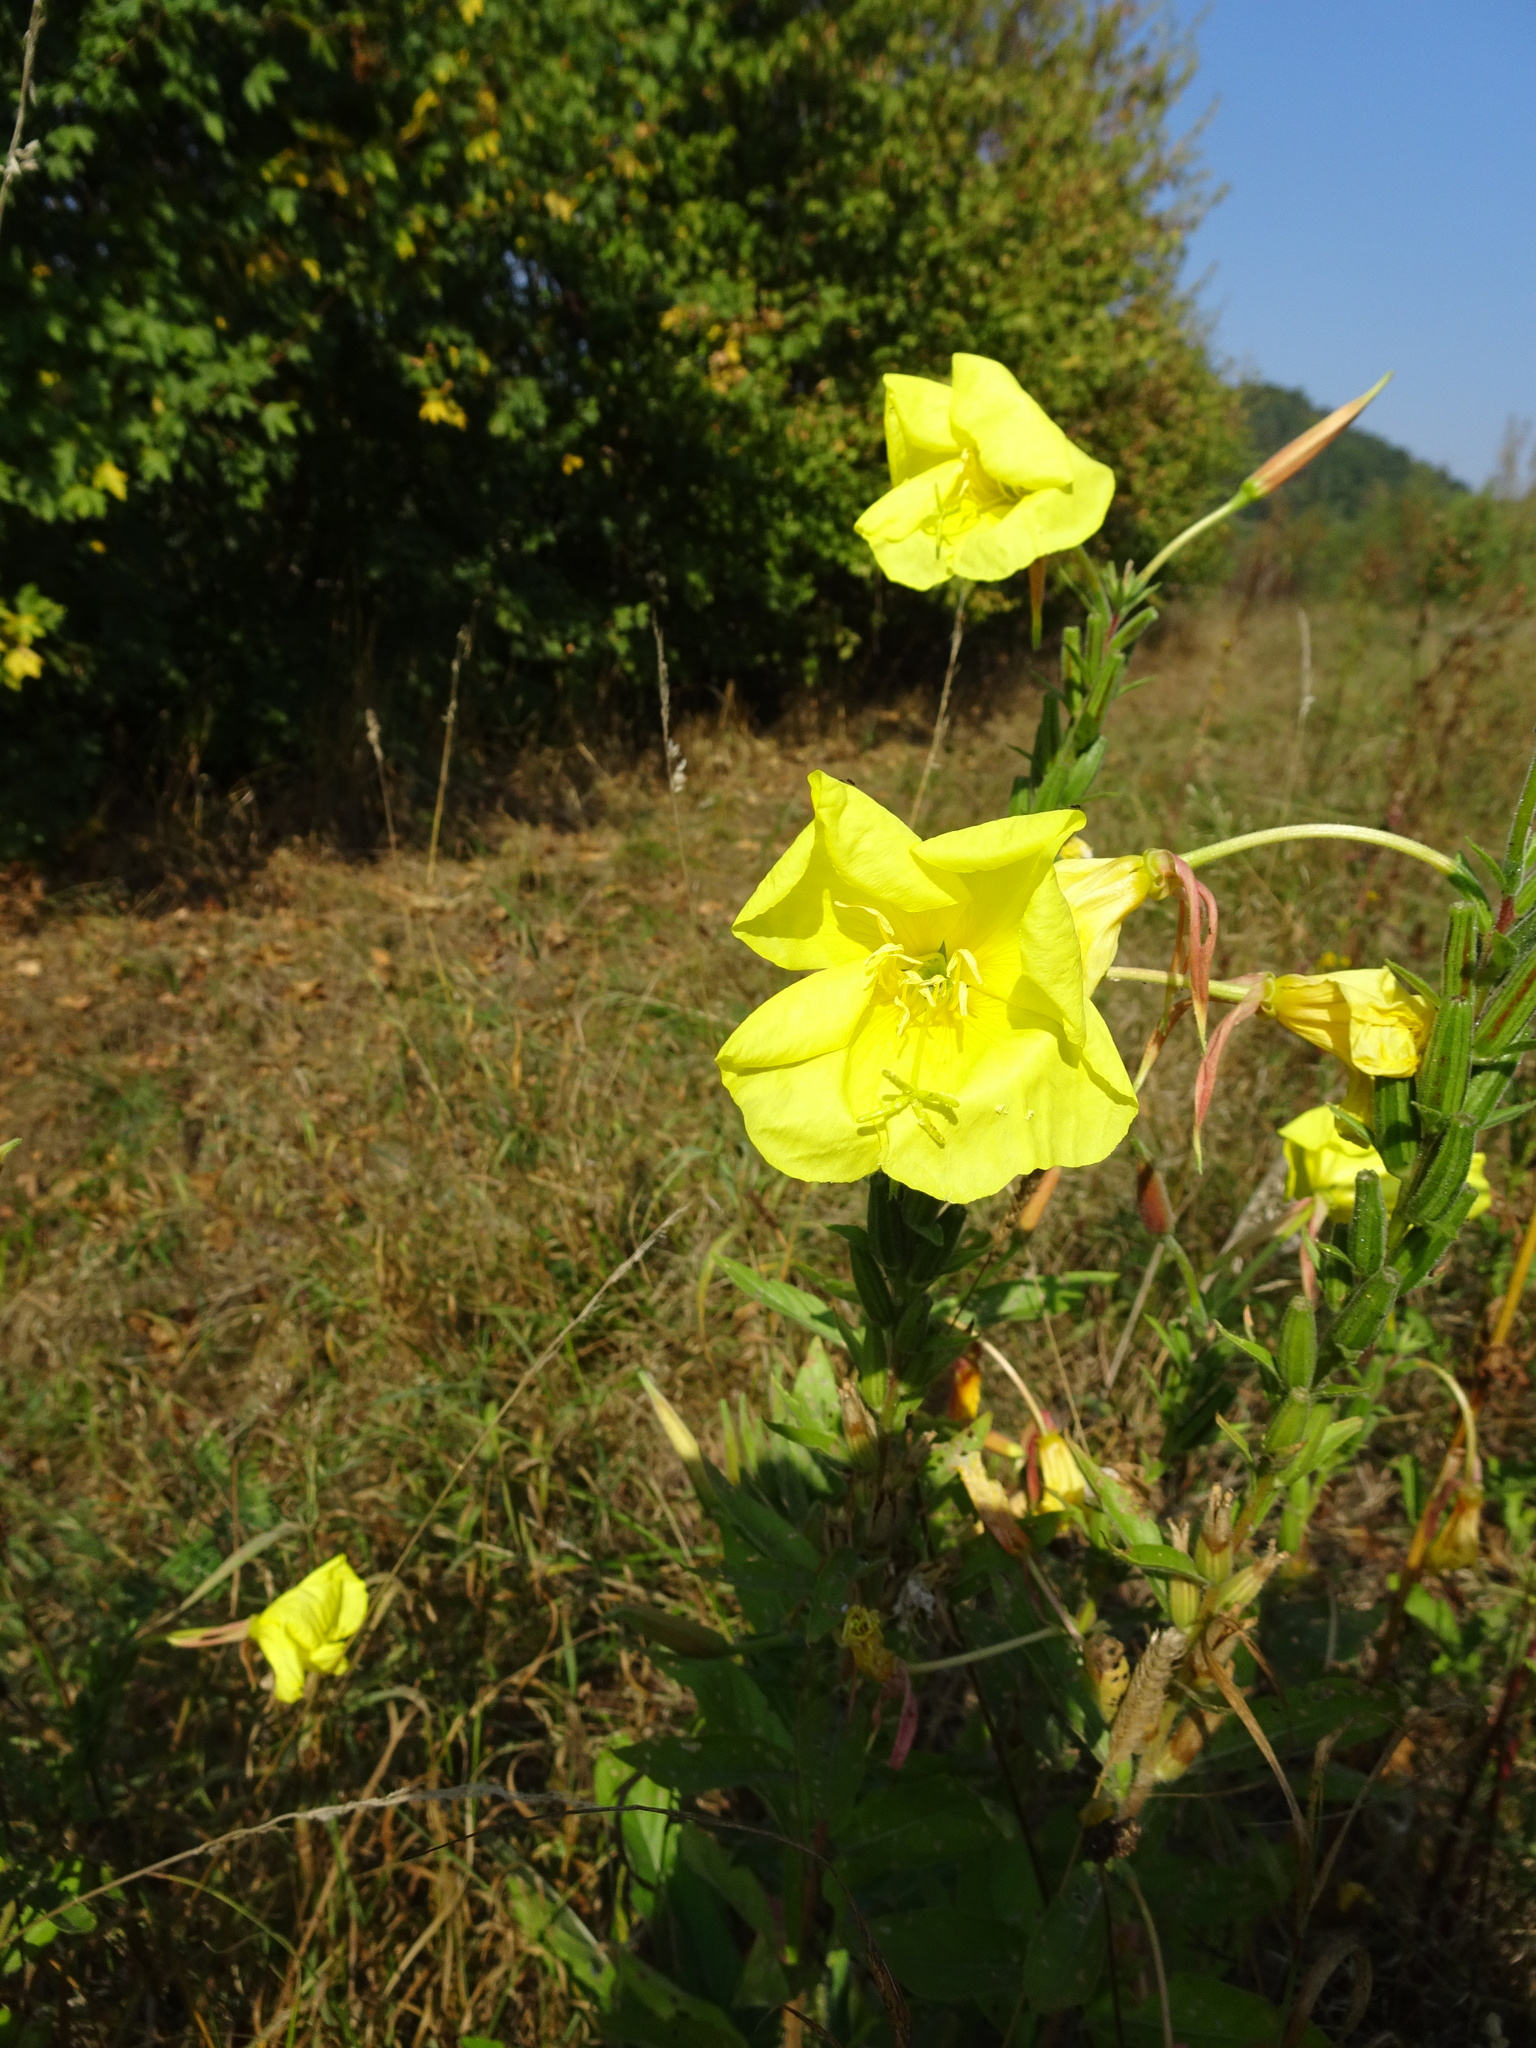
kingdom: Plantae
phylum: Tracheophyta
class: Magnoliopsida
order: Myrtales
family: Onagraceae
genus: Oenothera
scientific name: Oenothera glazioviana
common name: Large-flowered evening-primrose
